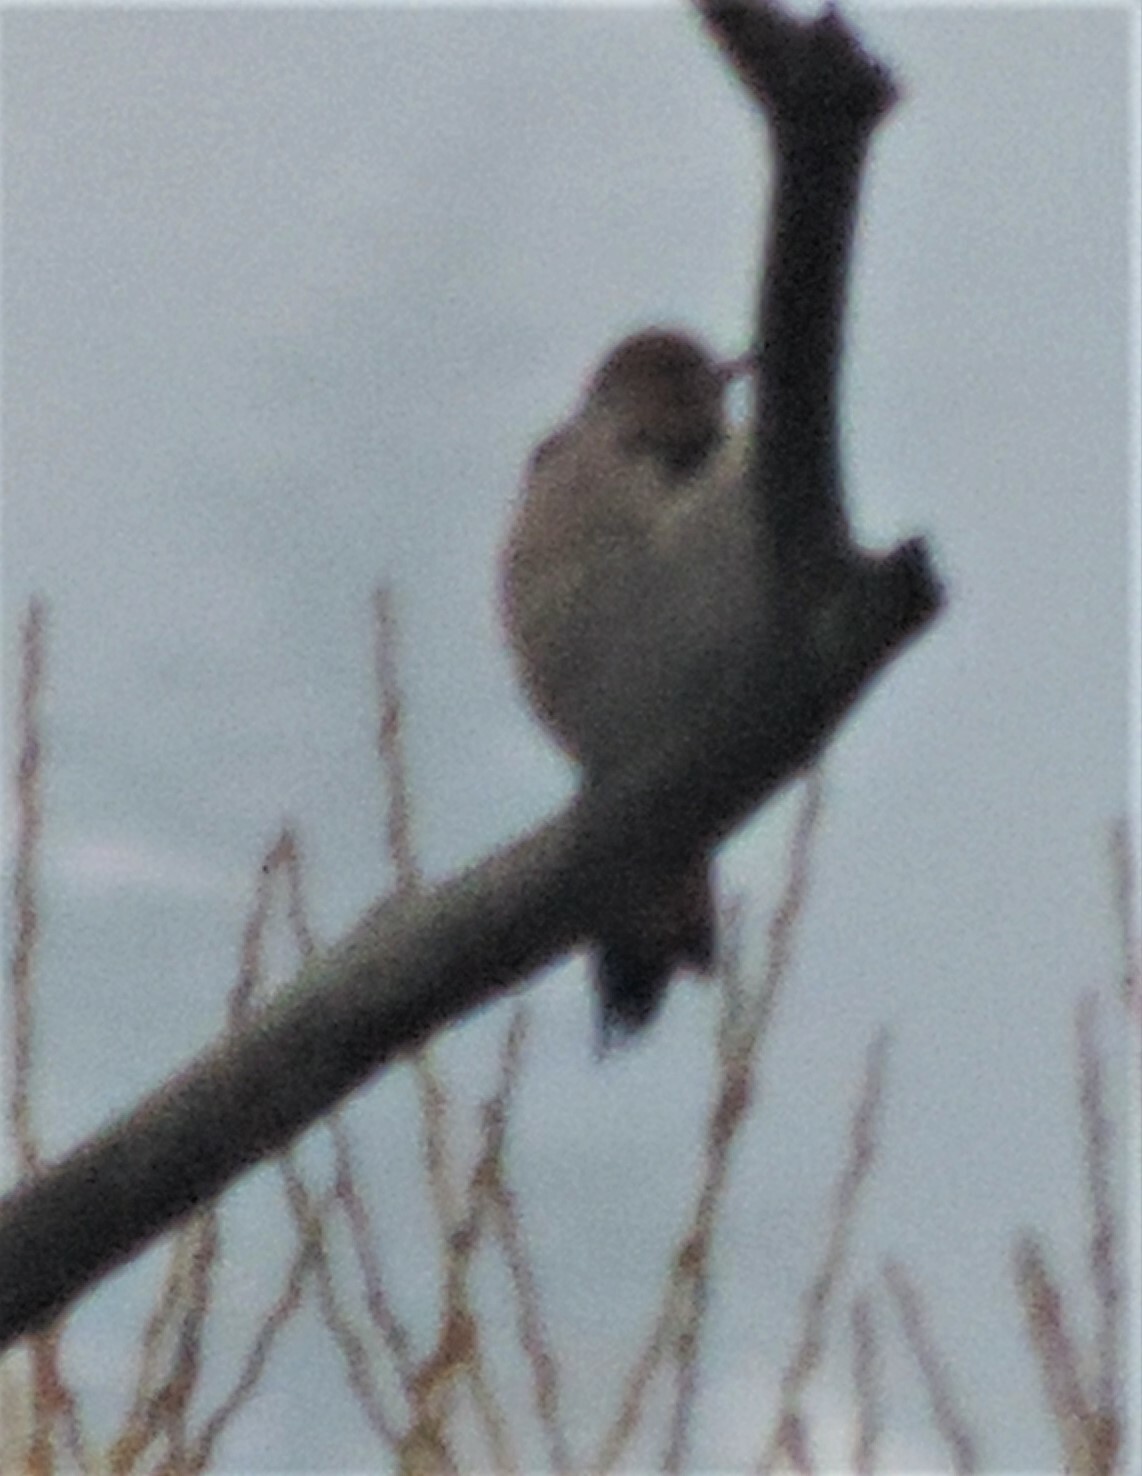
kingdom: Animalia
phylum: Chordata
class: Aves
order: Piciformes
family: Picidae
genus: Colaptes
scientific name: Colaptes auratus
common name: Northern flicker
